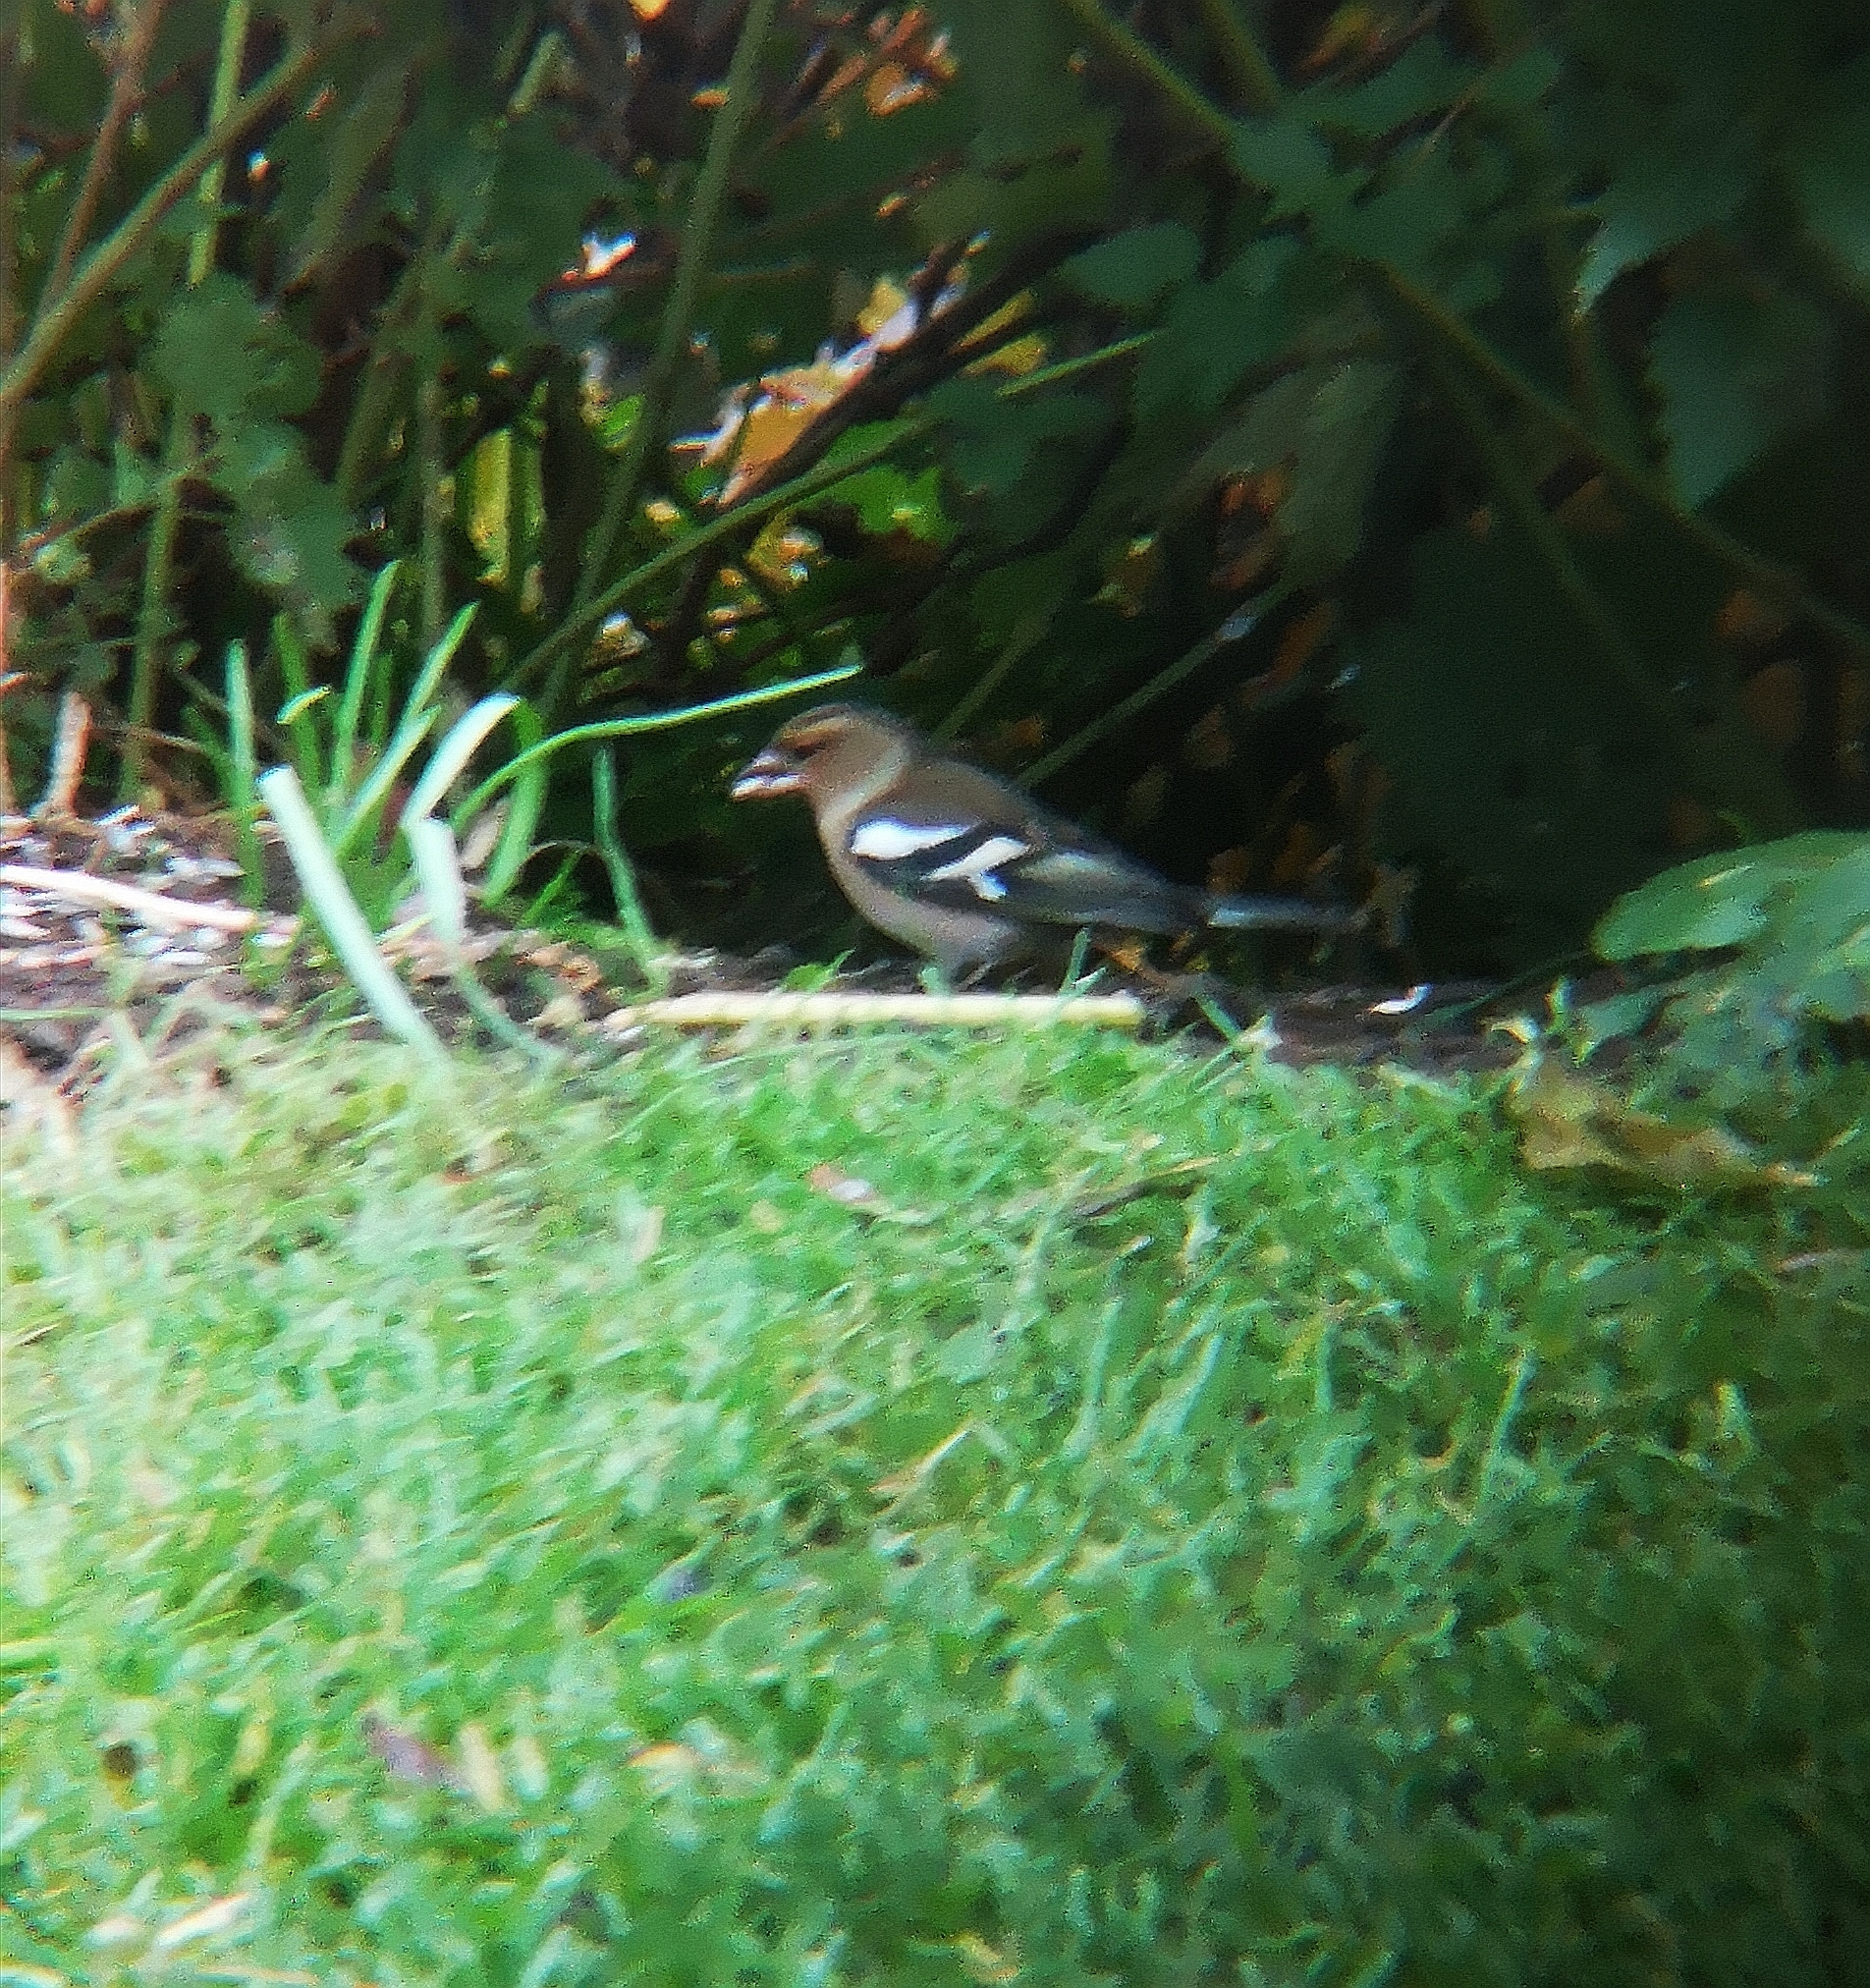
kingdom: Animalia
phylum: Chordata
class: Aves
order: Passeriformes
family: Fringillidae
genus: Fringilla
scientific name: Fringilla coelebs
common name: Common chaffinch
